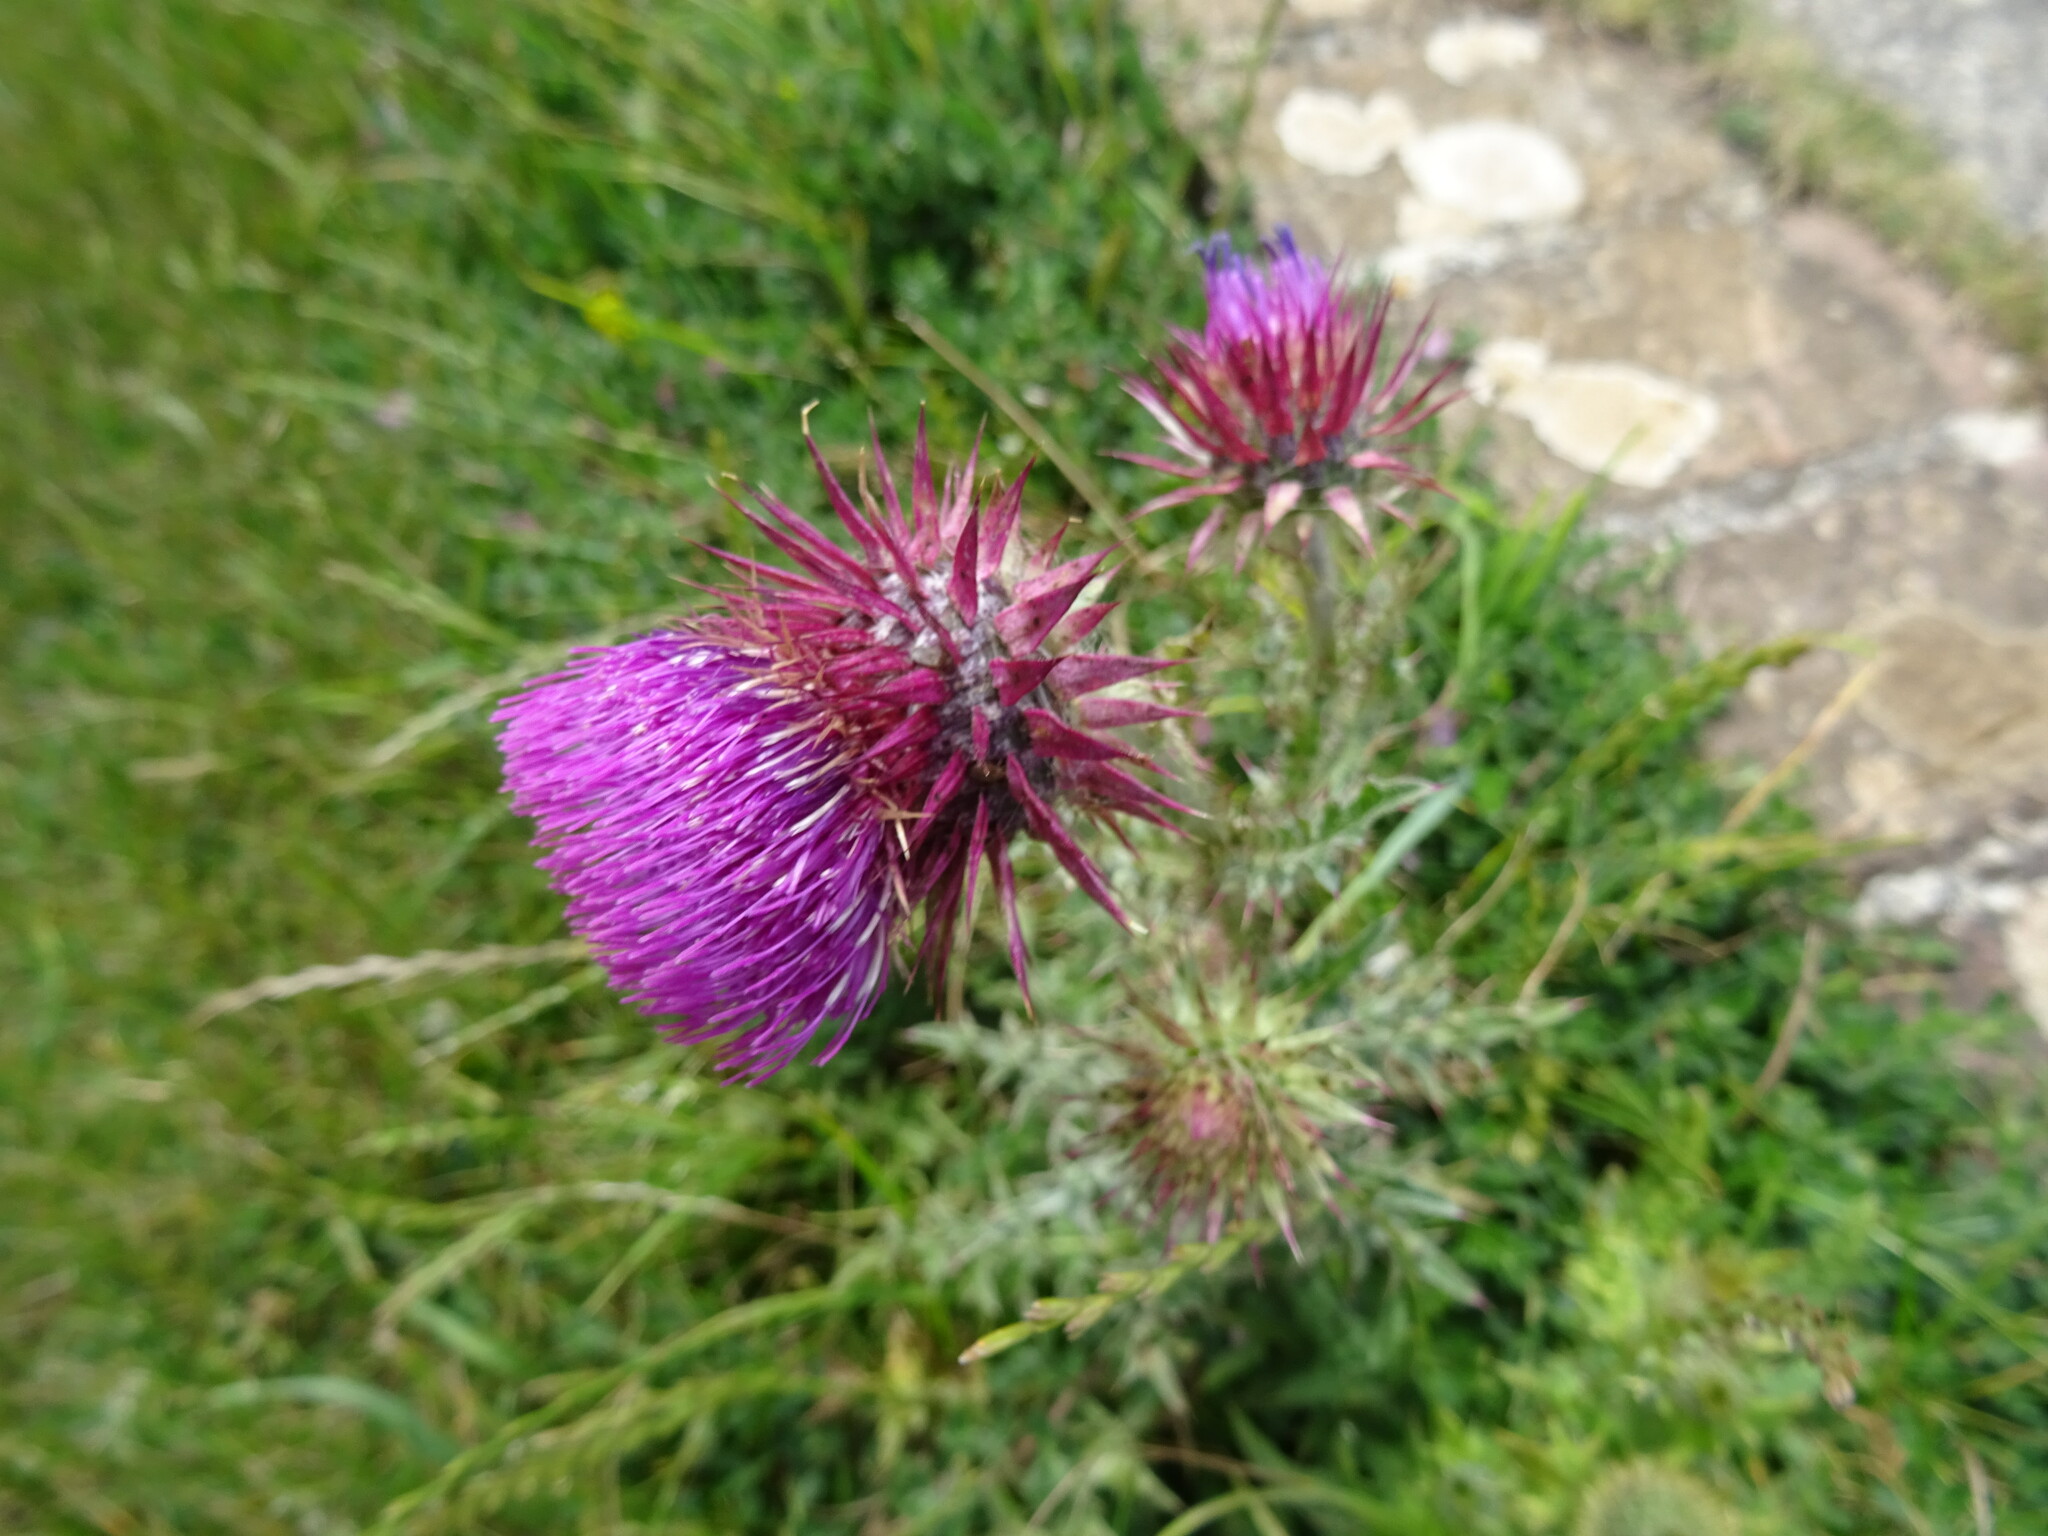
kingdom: Plantae
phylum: Tracheophyta
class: Magnoliopsida
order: Asterales
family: Asteraceae
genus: Carduus
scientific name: Carduus nutans
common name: Musk thistle
